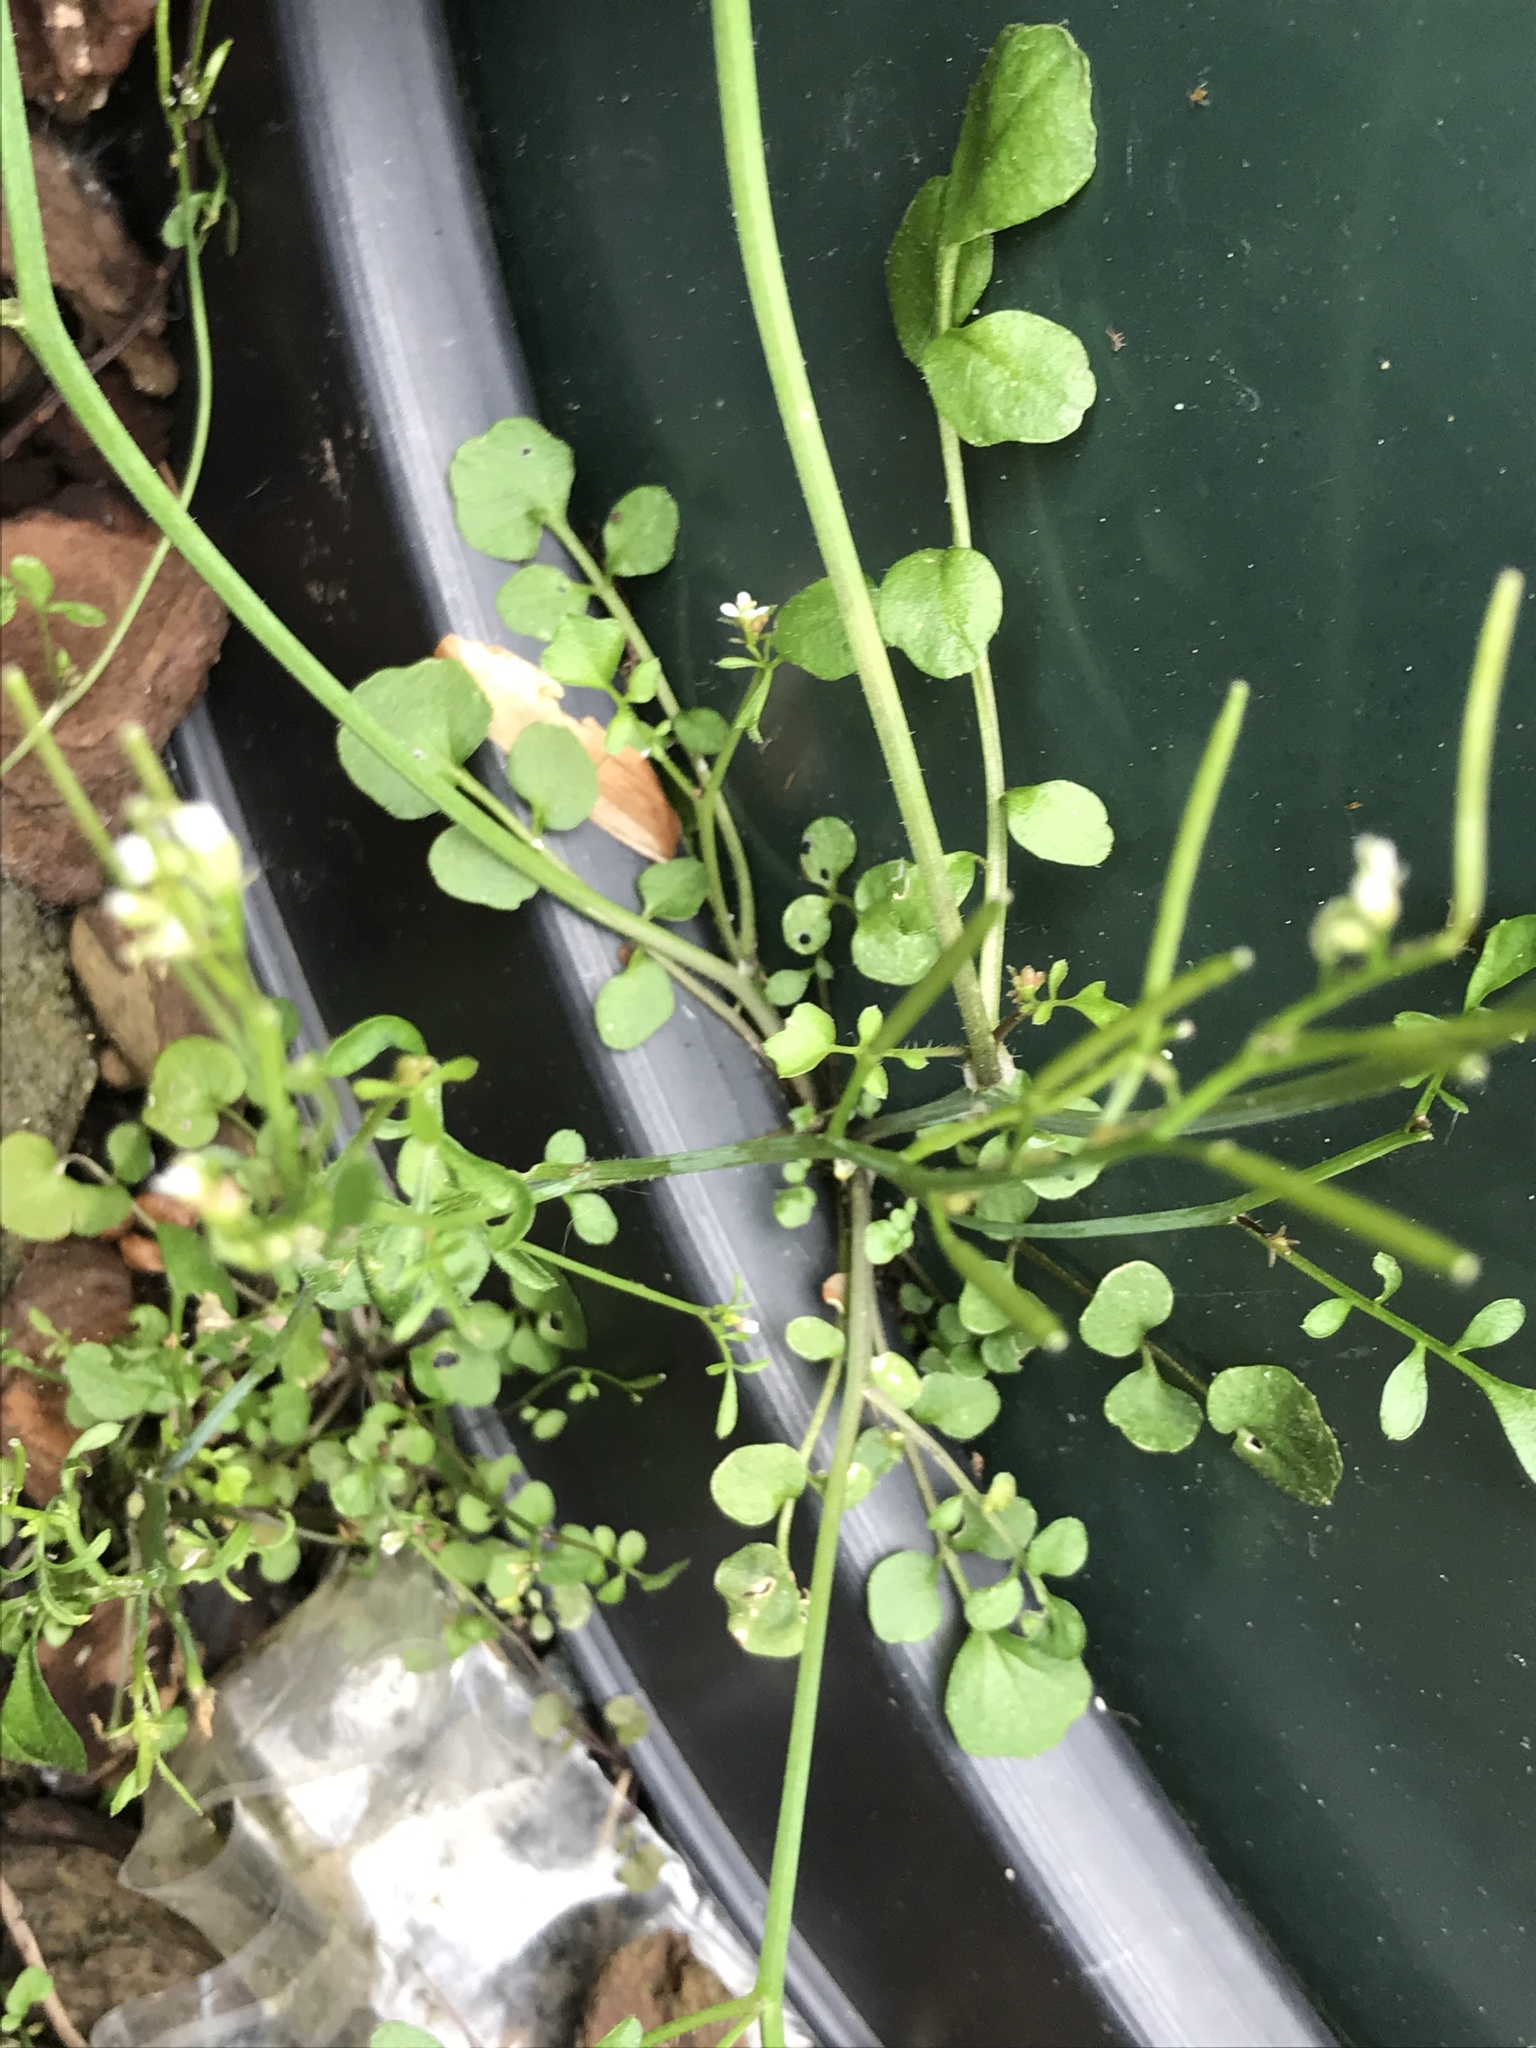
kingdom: Plantae
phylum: Tracheophyta
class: Magnoliopsida
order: Brassicales
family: Brassicaceae
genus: Cardamine
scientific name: Cardamine hirsuta
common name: Hairy bittercress
